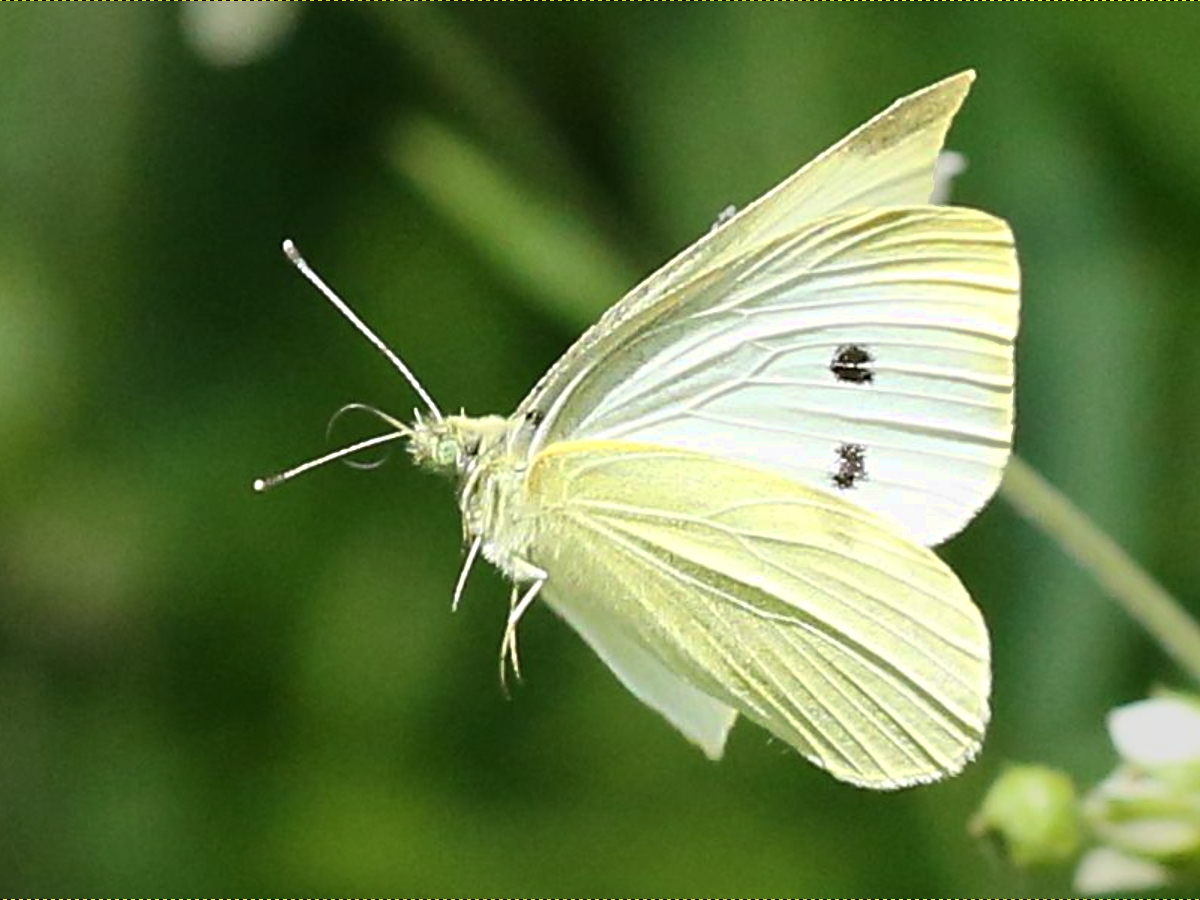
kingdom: Animalia
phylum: Arthropoda
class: Insecta
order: Lepidoptera
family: Pieridae
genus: Pieris
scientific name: Pieris rapae
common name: Small white
